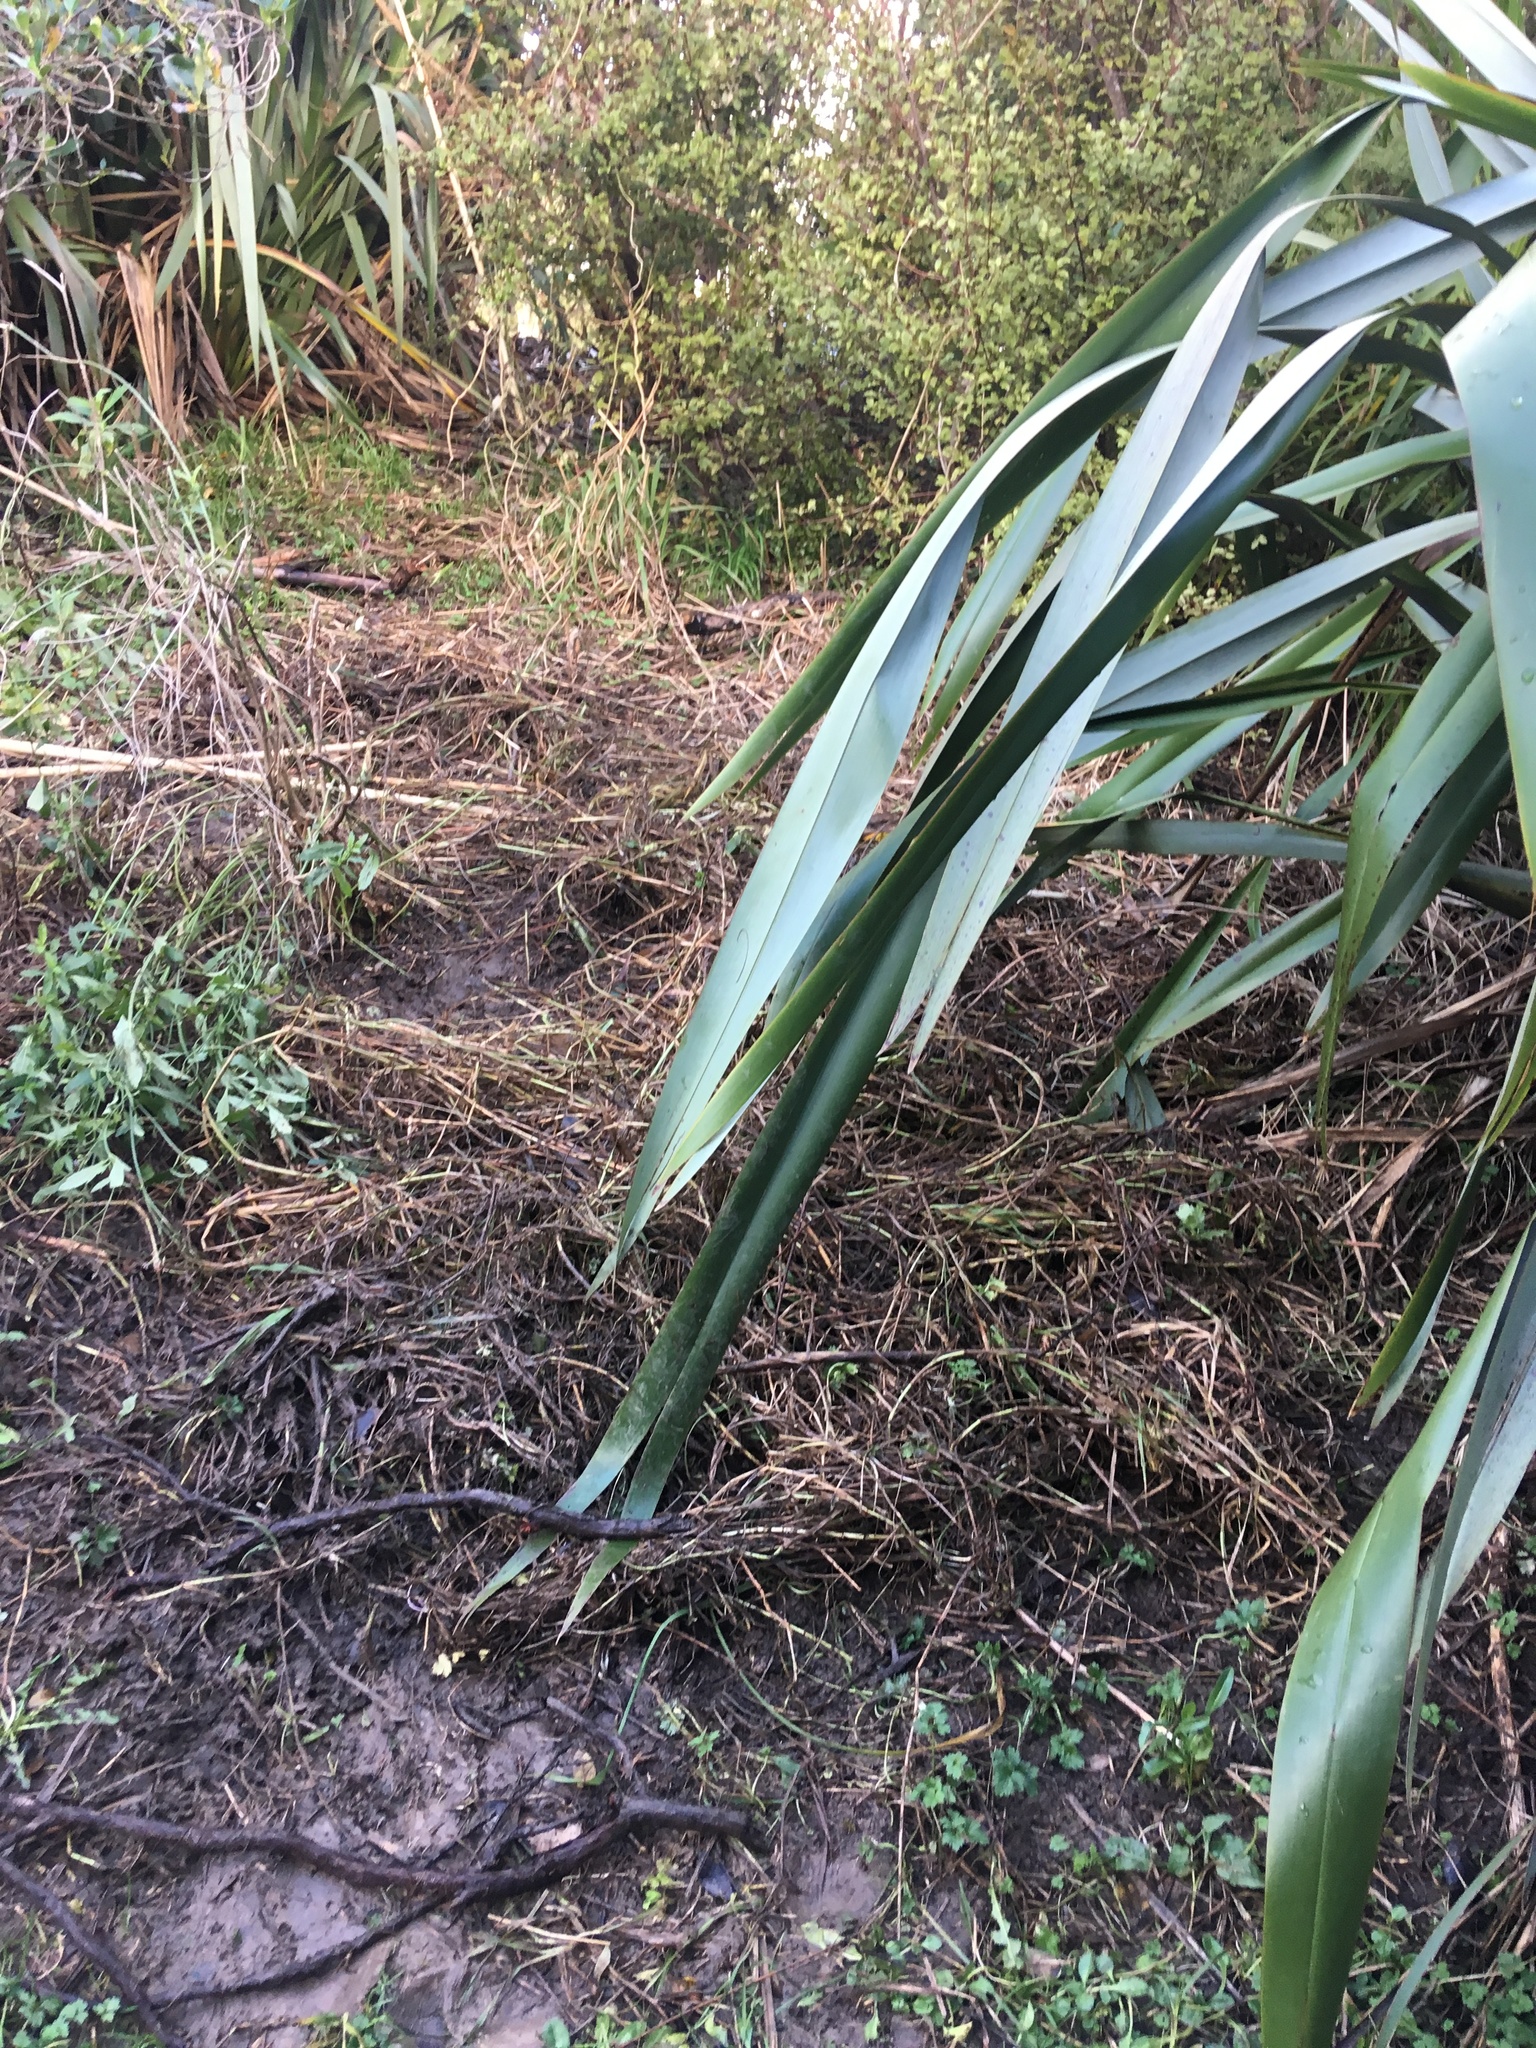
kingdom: Plantae
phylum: Tracheophyta
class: Magnoliopsida
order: Ericales
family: Primulaceae
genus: Myrsine
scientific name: Myrsine australis
